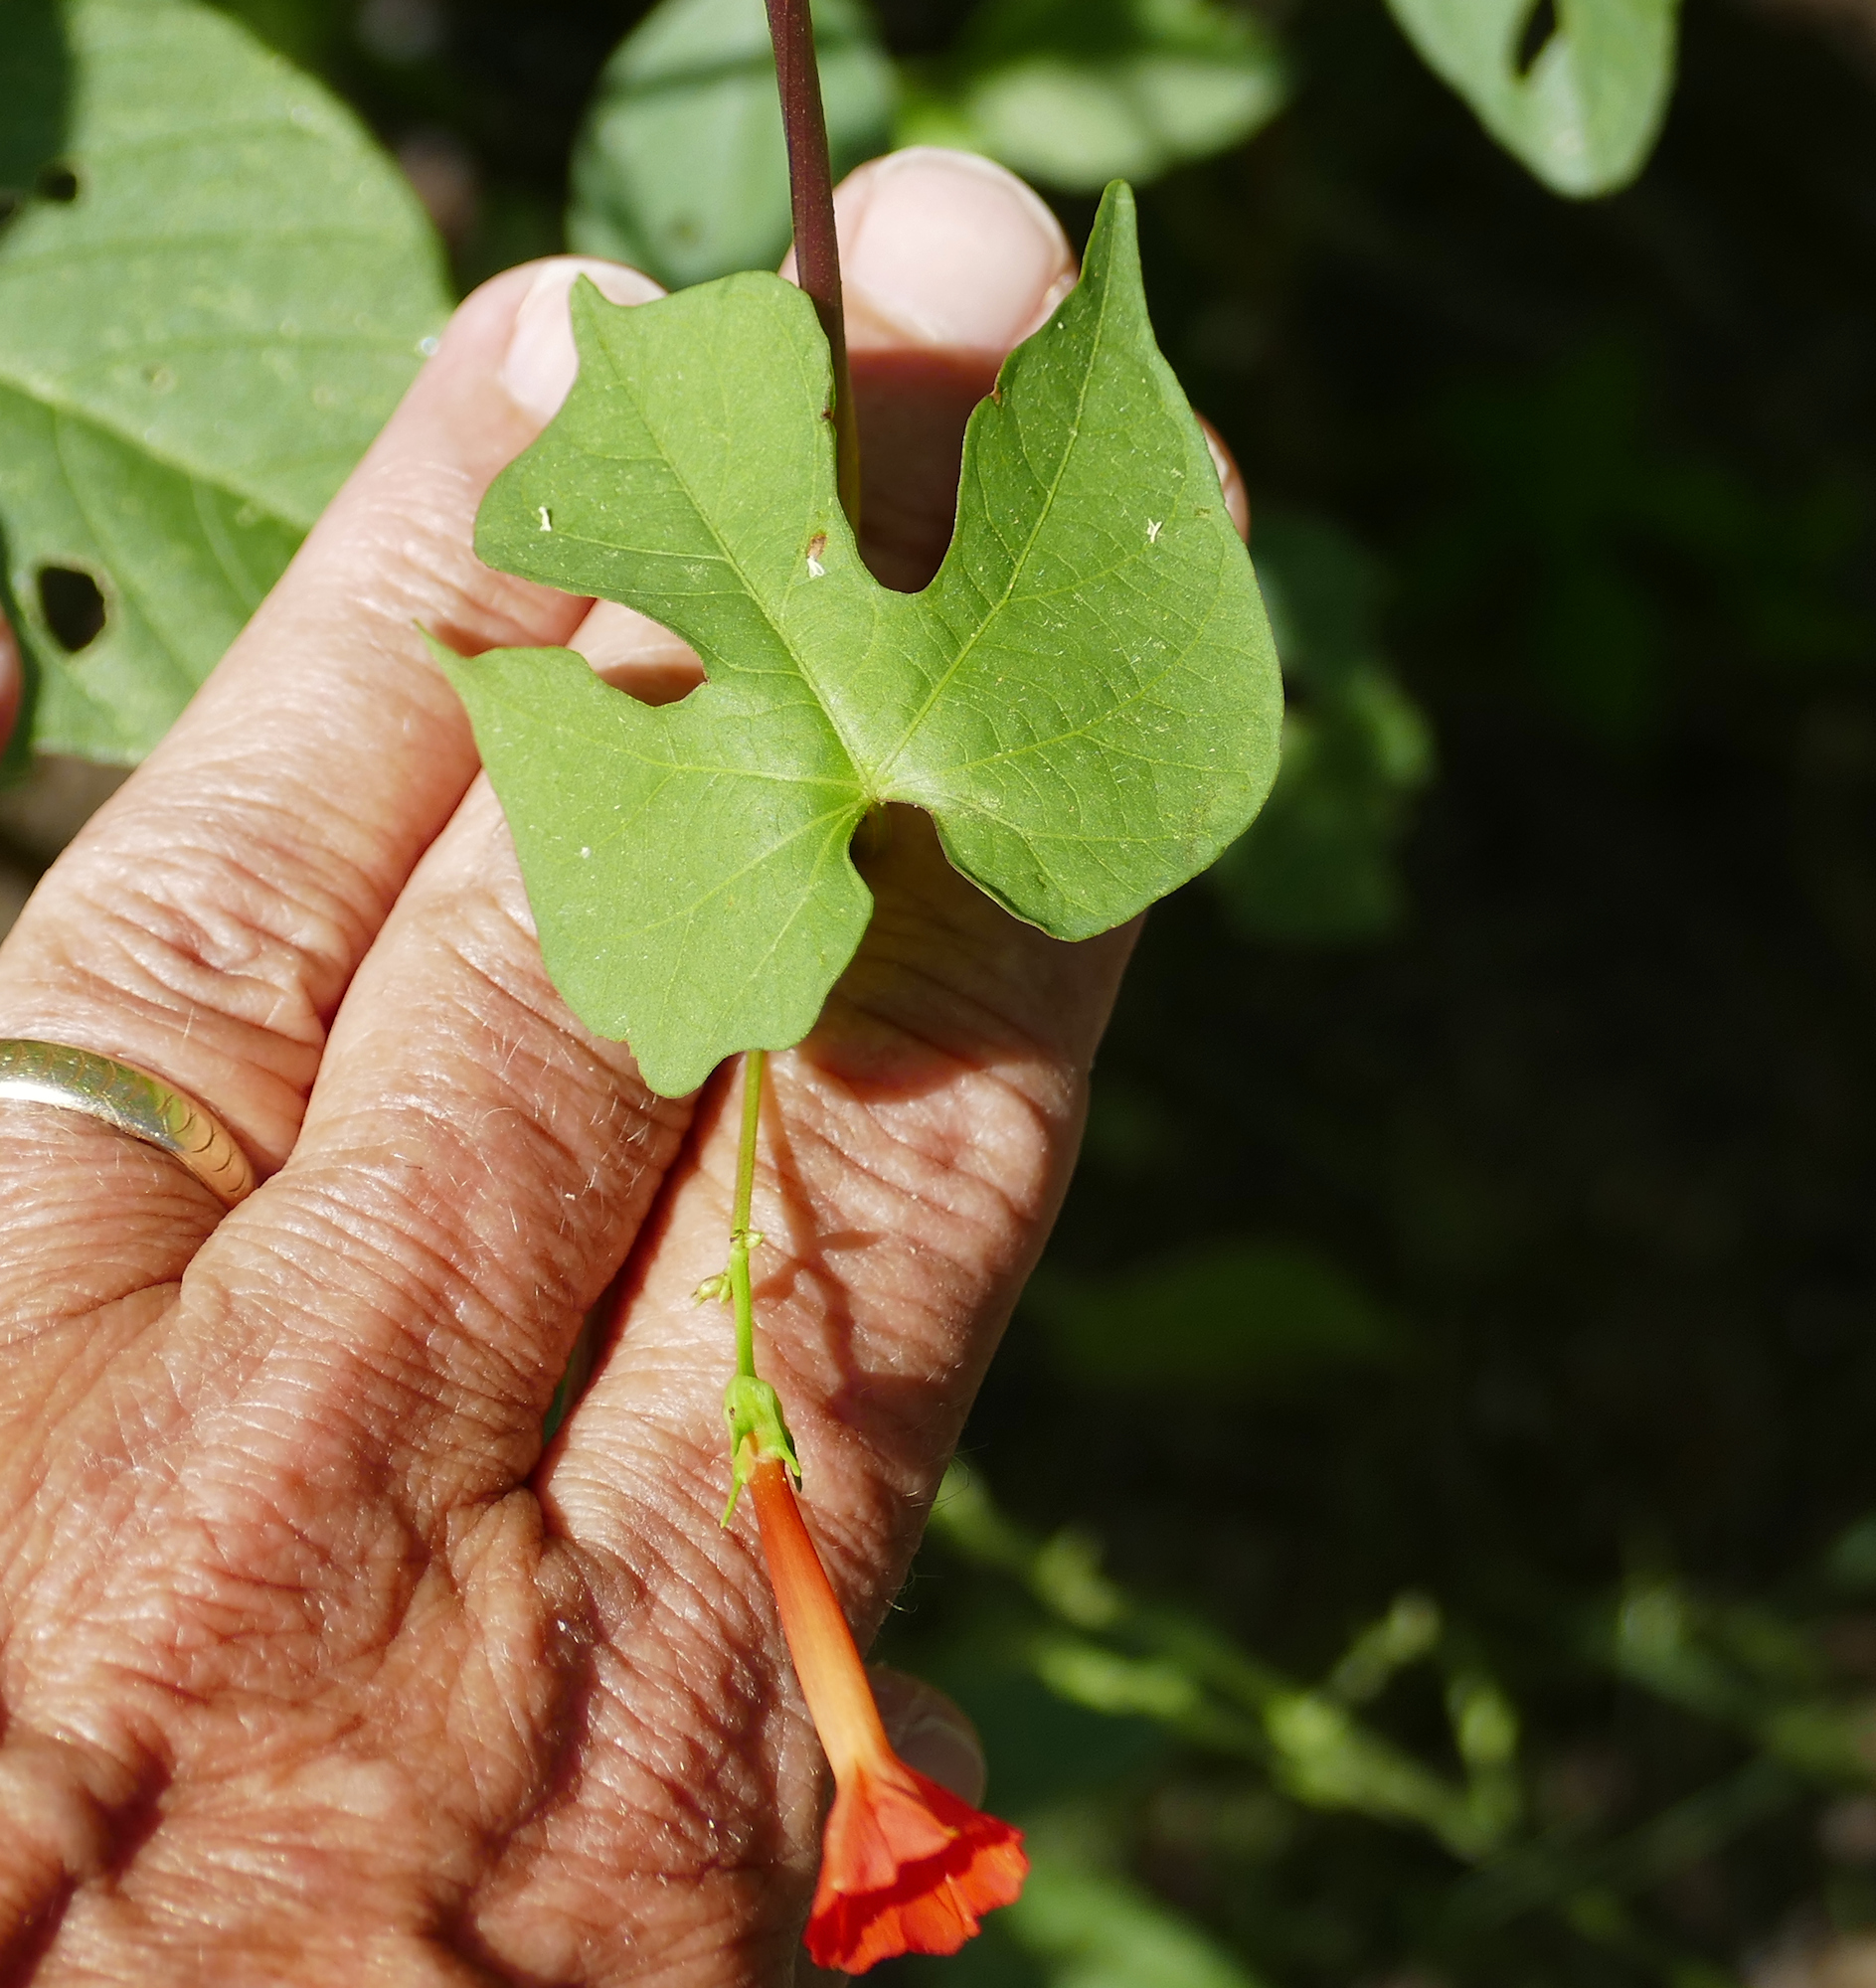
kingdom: Plantae
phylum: Tracheophyta
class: Magnoliopsida
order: Solanales
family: Convolvulaceae
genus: Ipomoea
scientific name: Ipomoea cristulata
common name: Trans-pecos morning-glory
